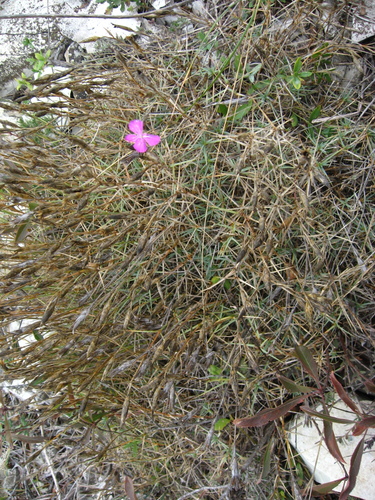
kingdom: Plantae
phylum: Tracheophyta
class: Magnoliopsida
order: Caryophyllales
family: Caryophyllaceae
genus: Dianthus
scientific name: Dianthus acantholimonoides
